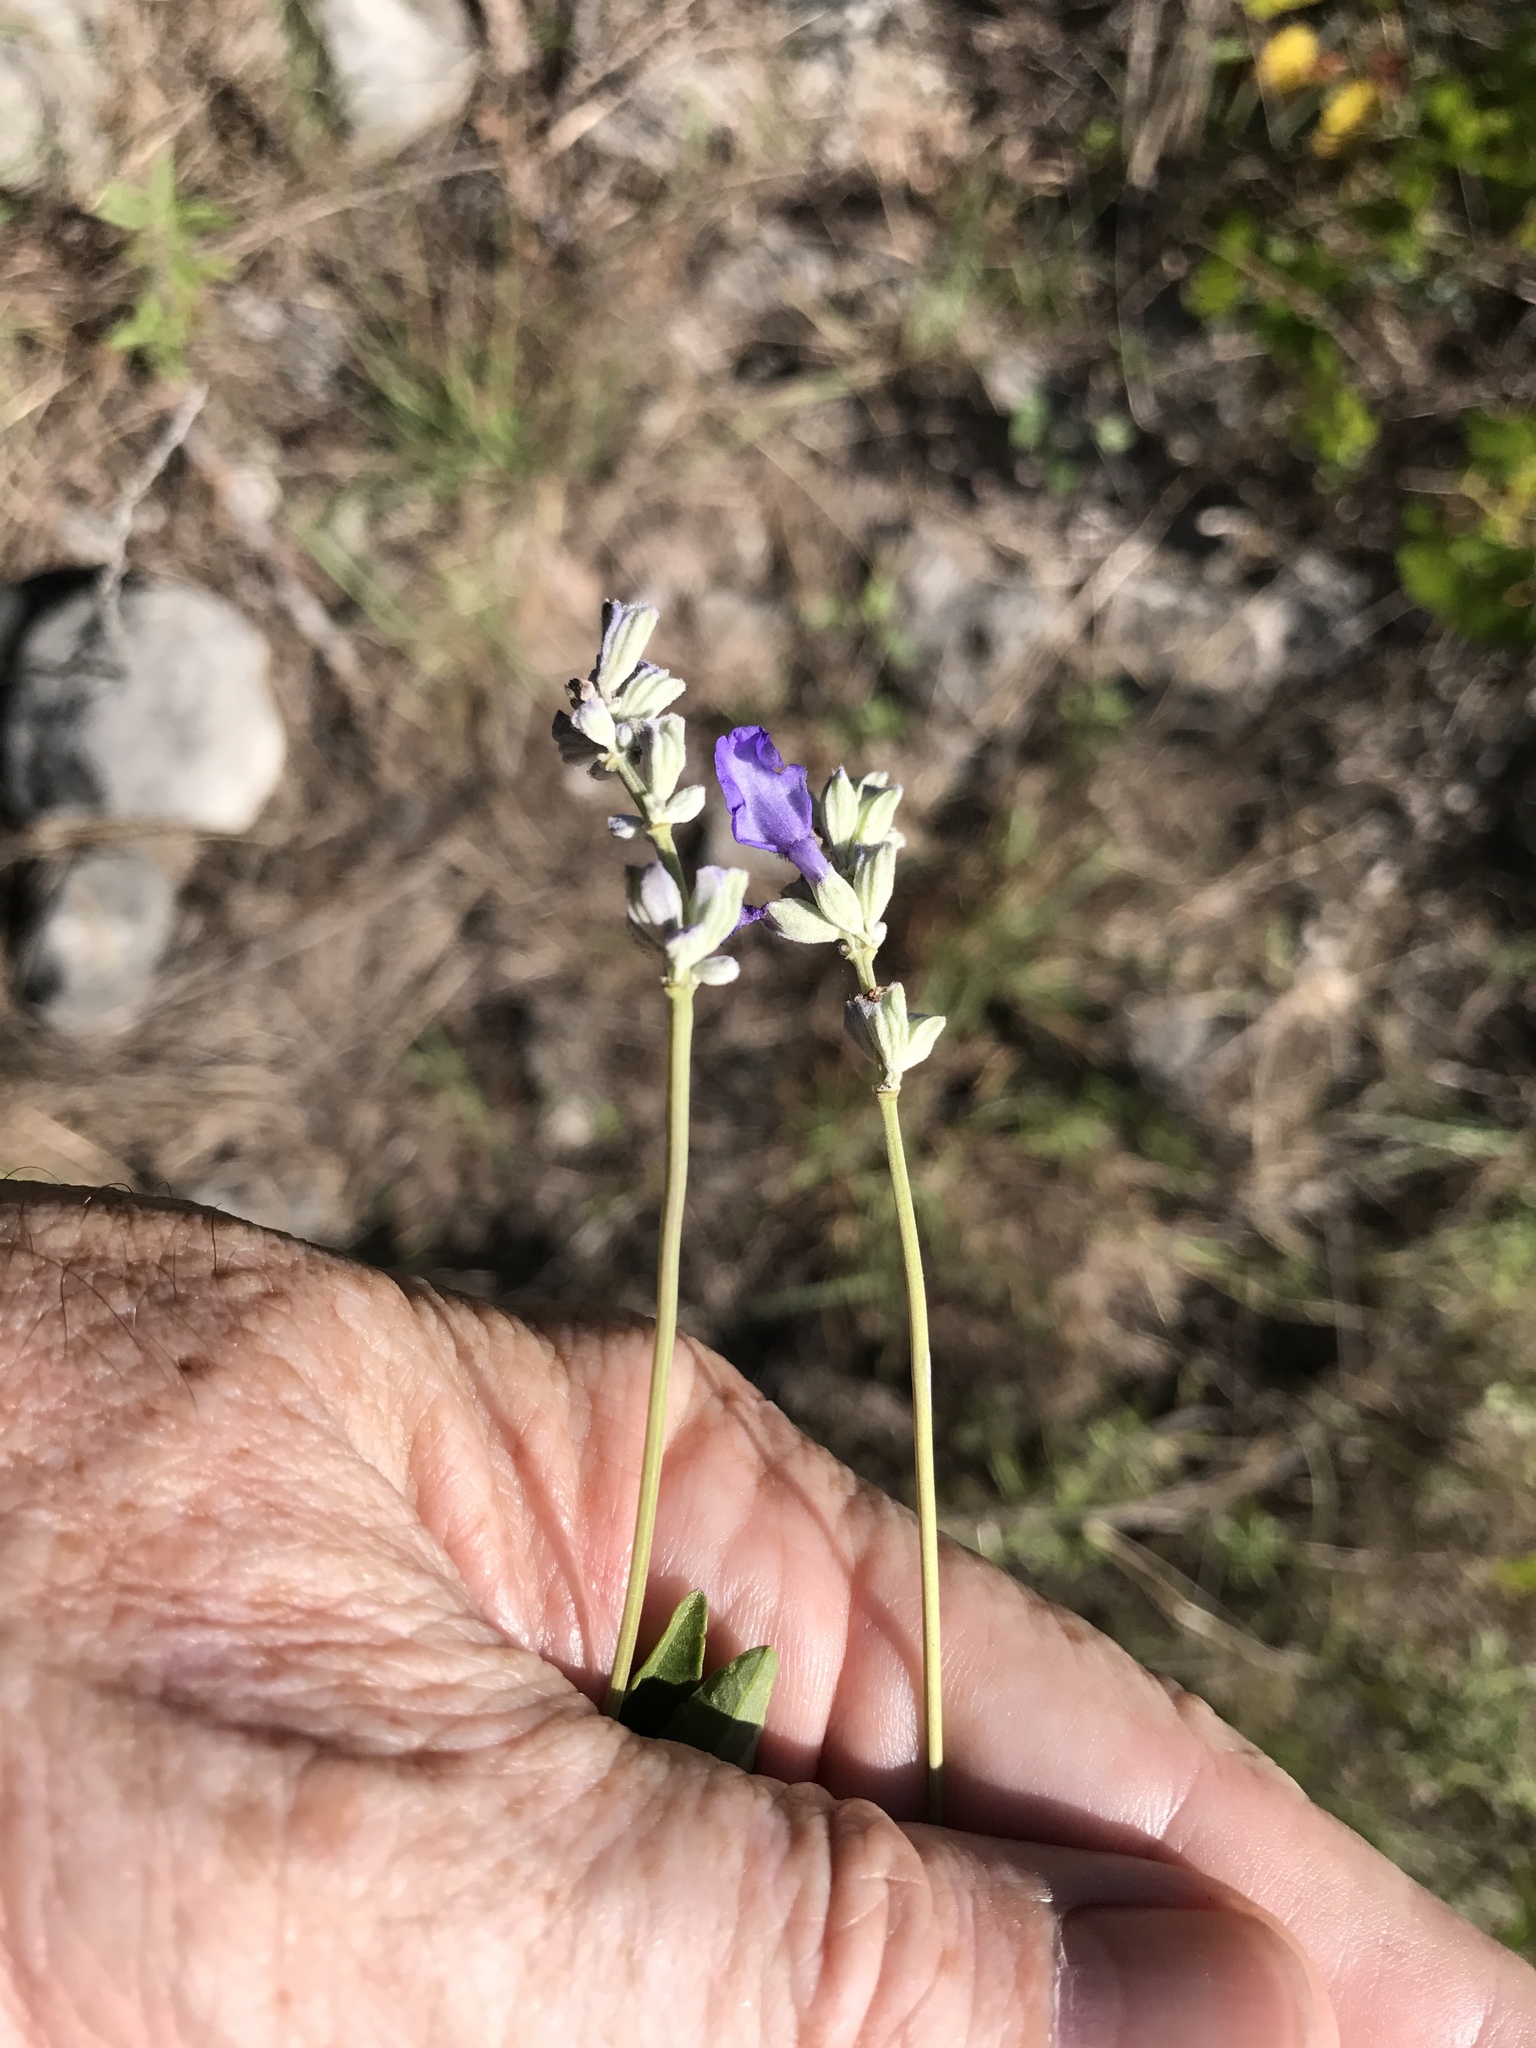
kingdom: Plantae
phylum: Tracheophyta
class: Magnoliopsida
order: Lamiales
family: Lamiaceae
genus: Salvia
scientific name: Salvia farinacea
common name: Mealy sage
